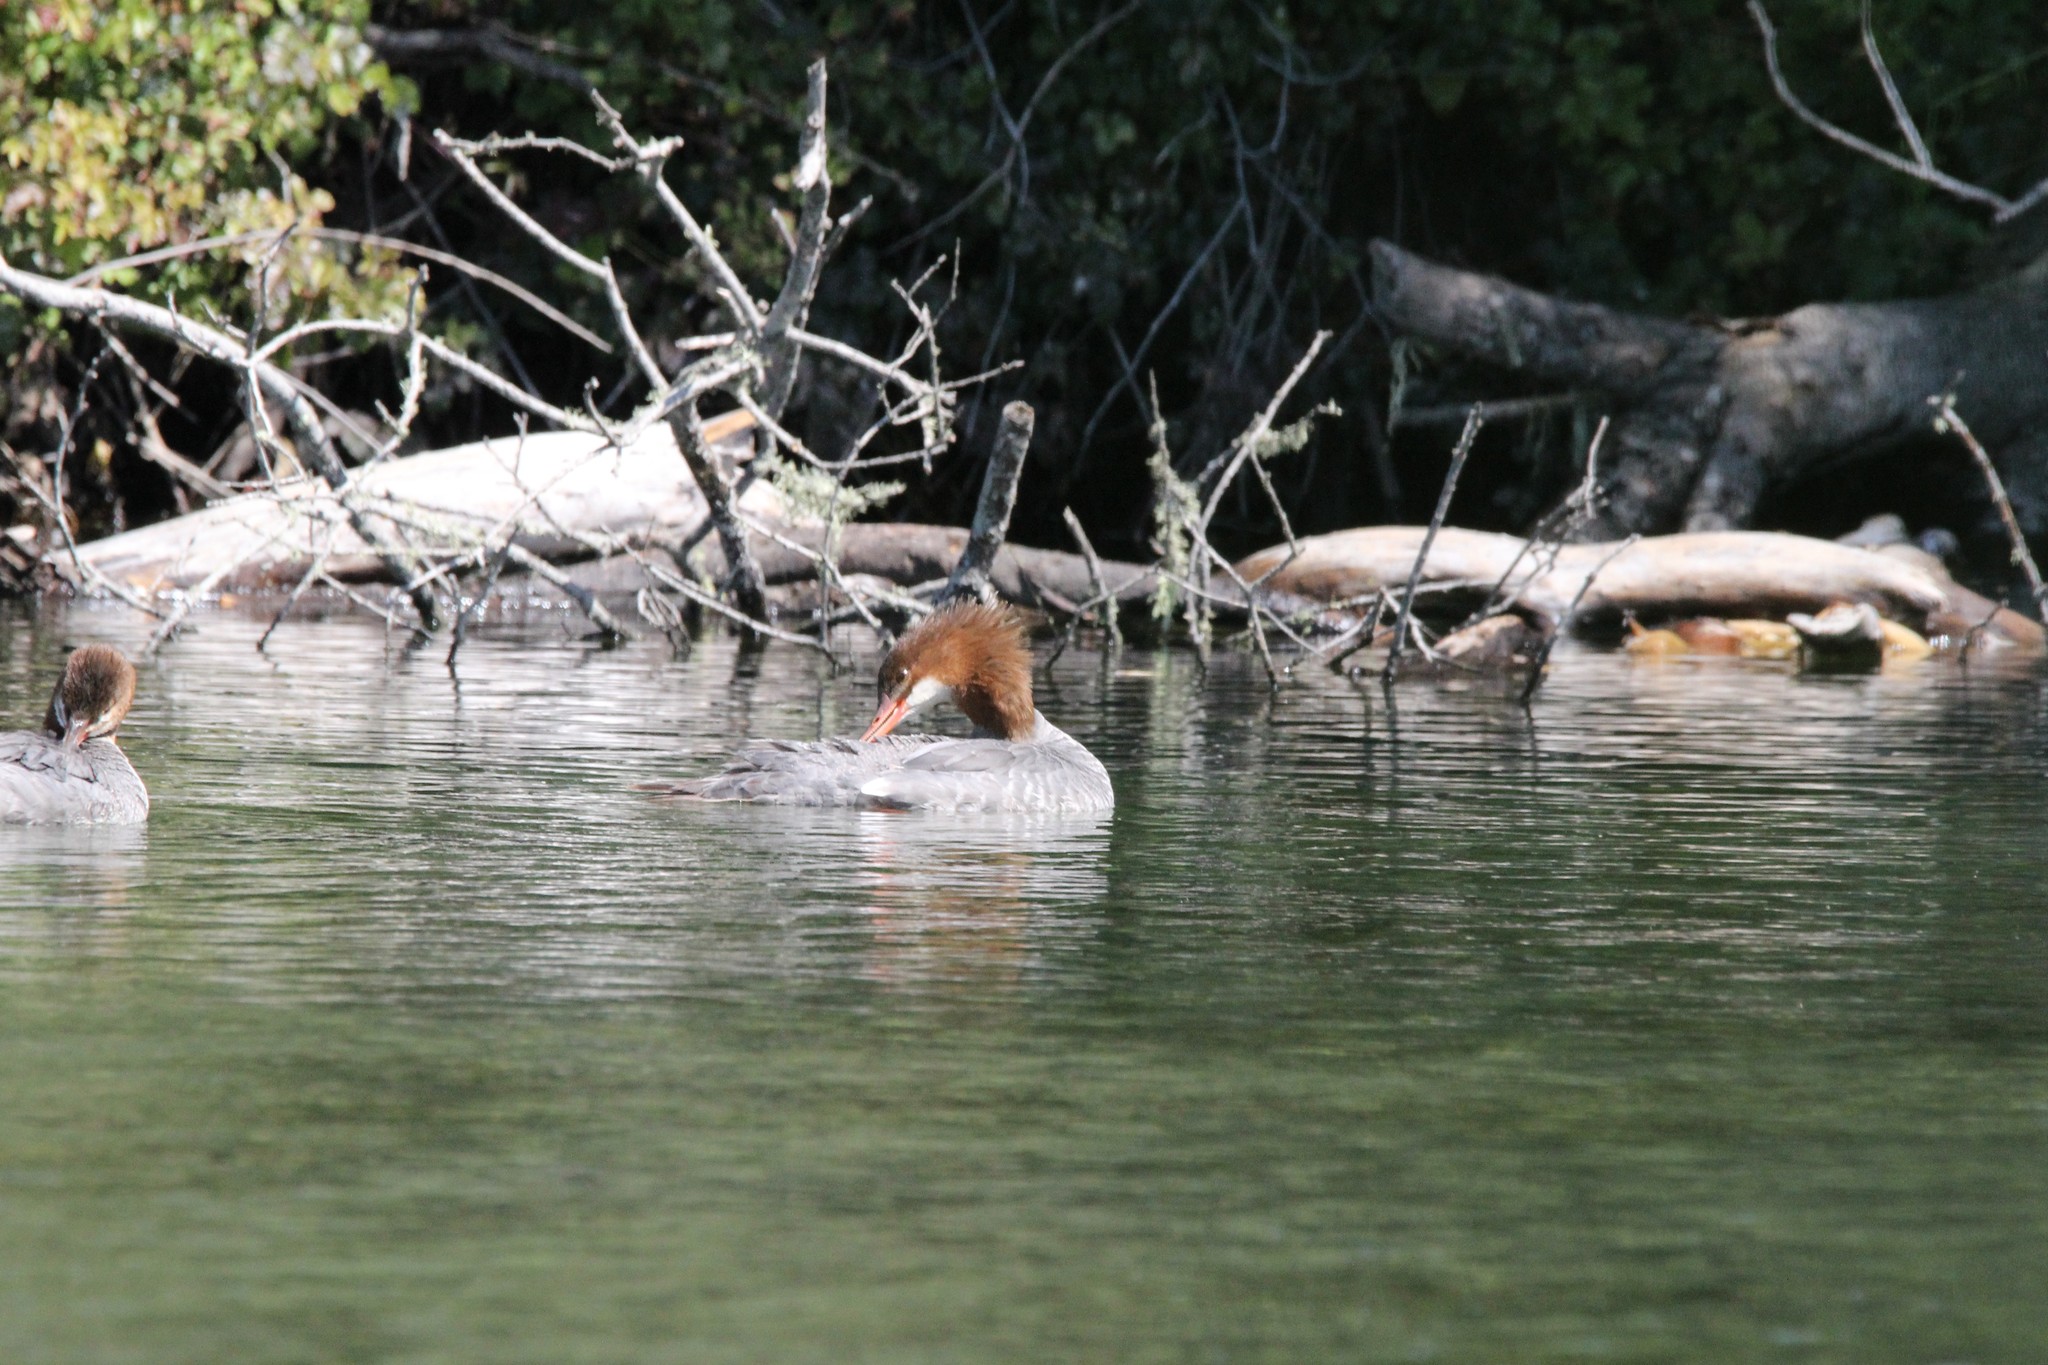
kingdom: Animalia
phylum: Chordata
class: Aves
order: Anseriformes
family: Anatidae
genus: Mergus
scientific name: Mergus merganser
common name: Common merganser
